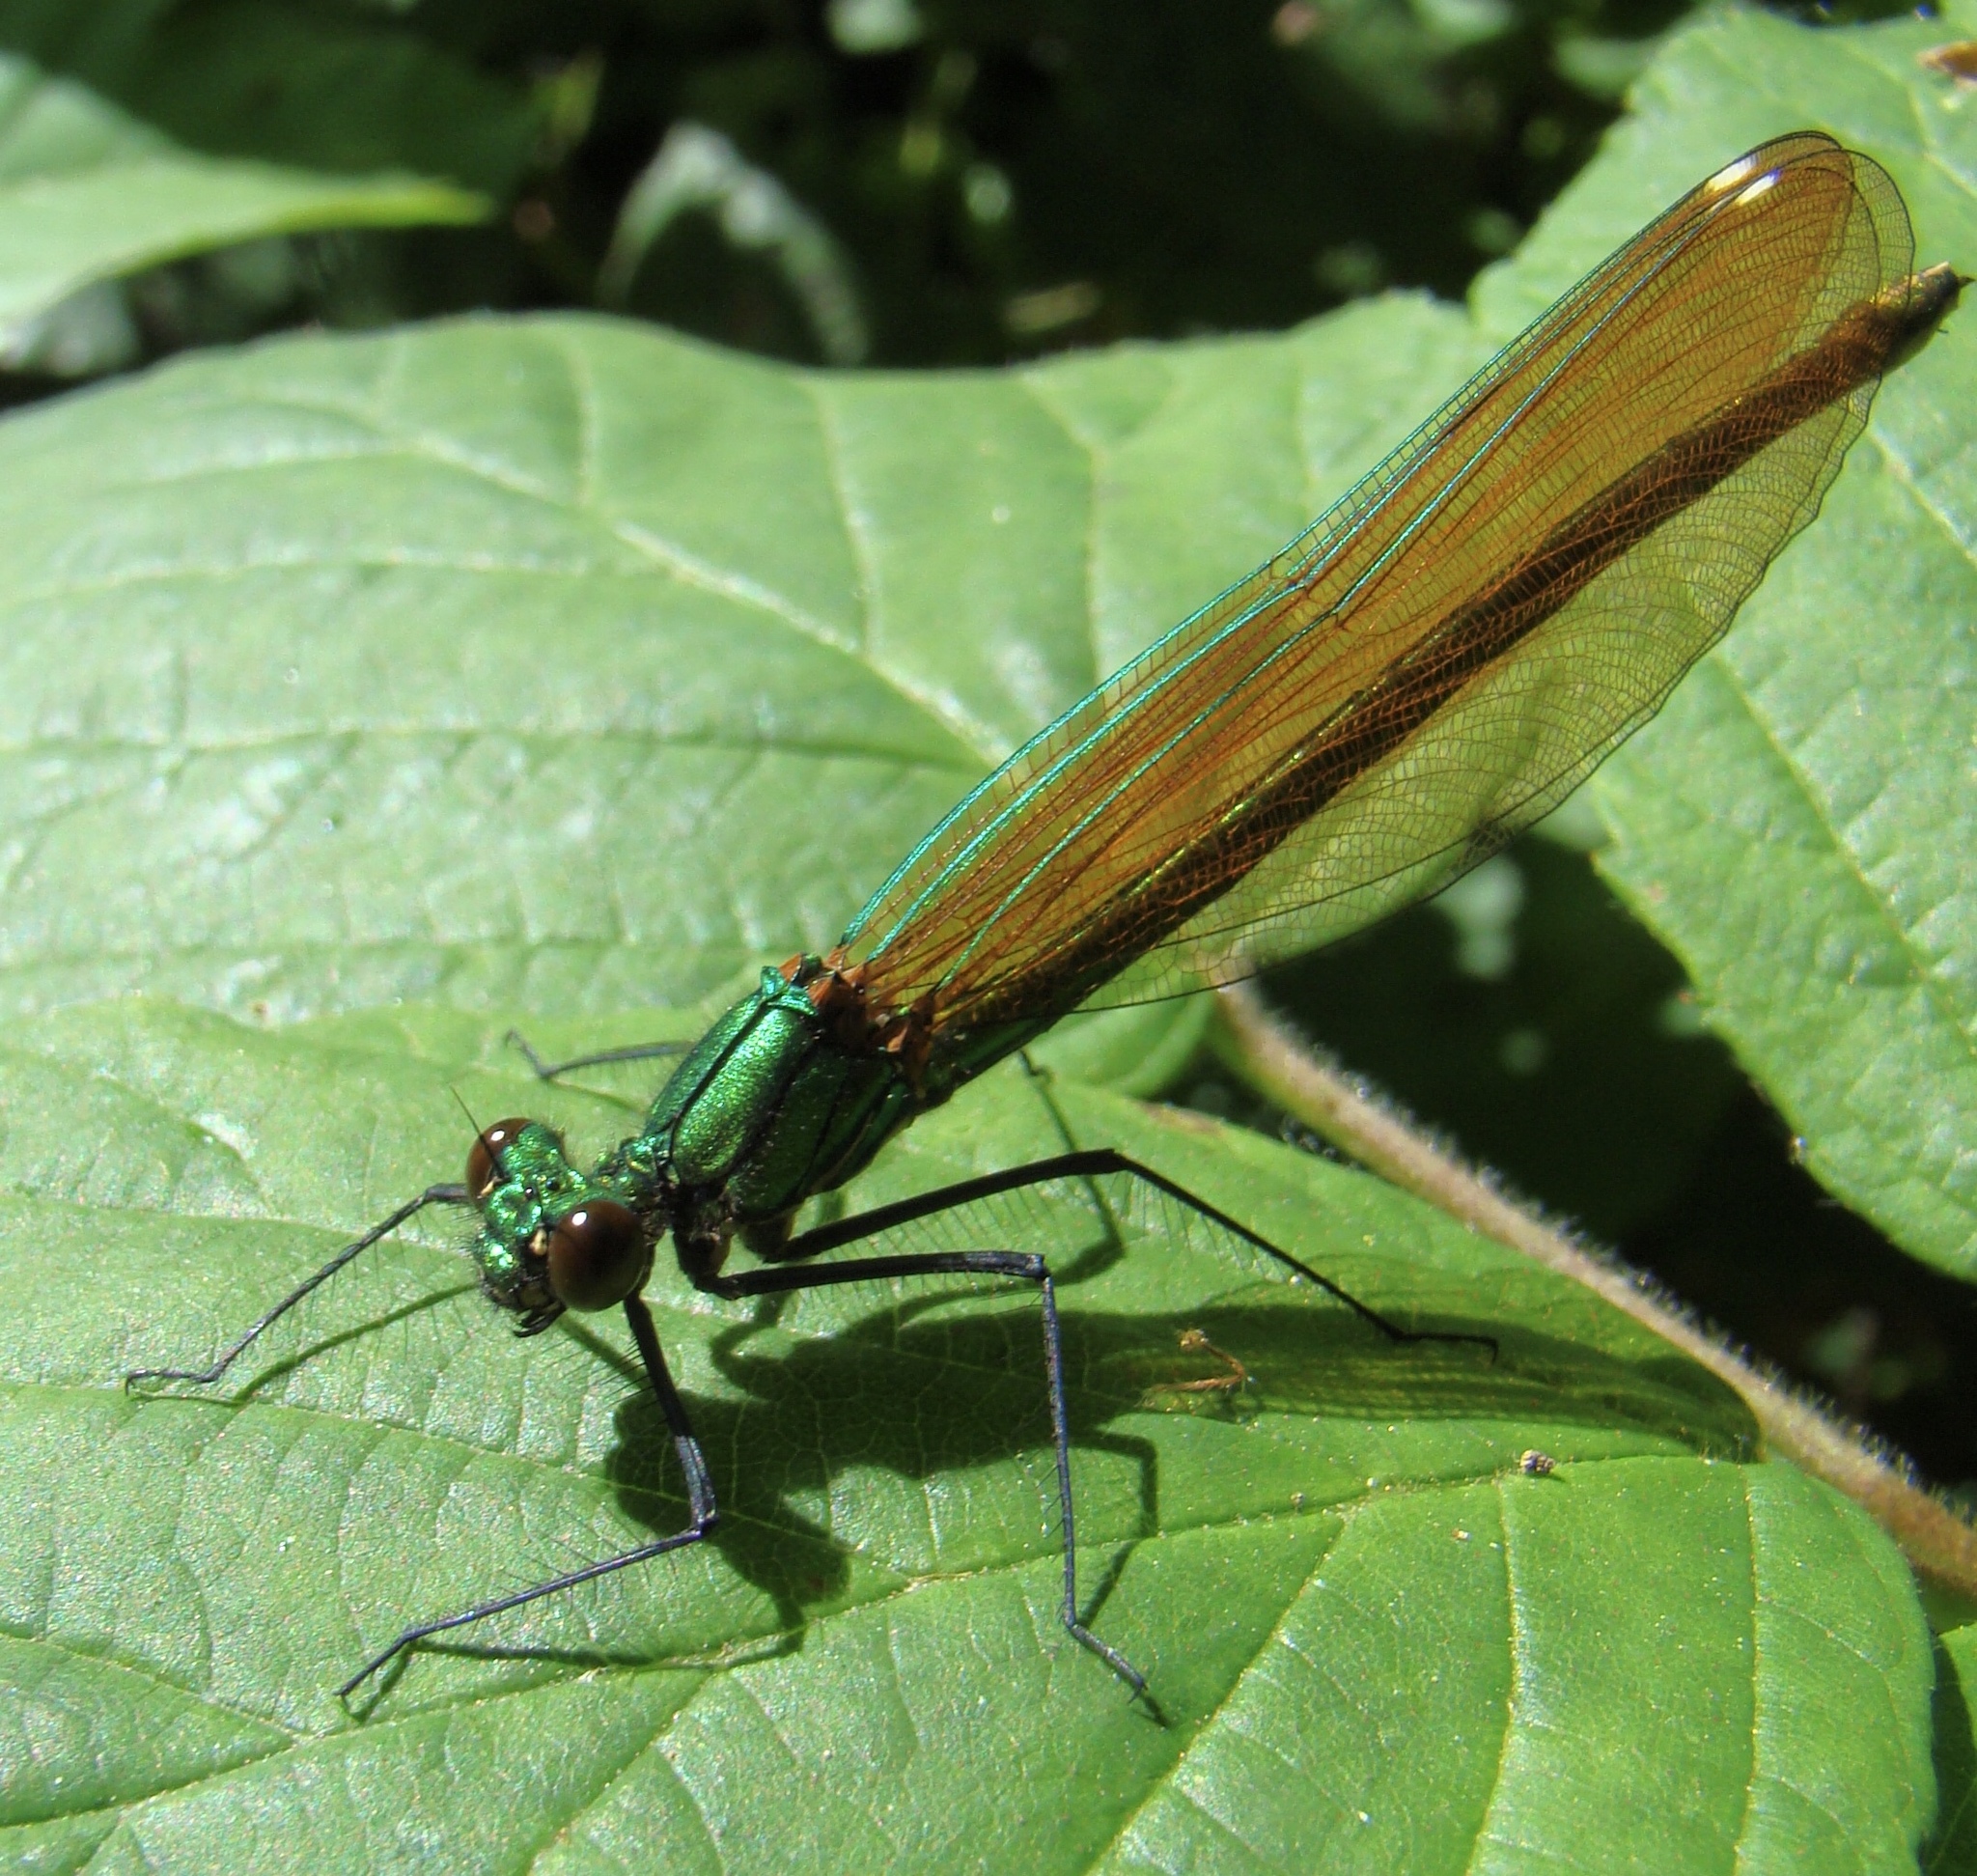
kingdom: Animalia
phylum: Arthropoda
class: Insecta
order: Odonata
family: Calopterygidae
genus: Calopteryx
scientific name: Calopteryx splendens
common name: Banded demoiselle
